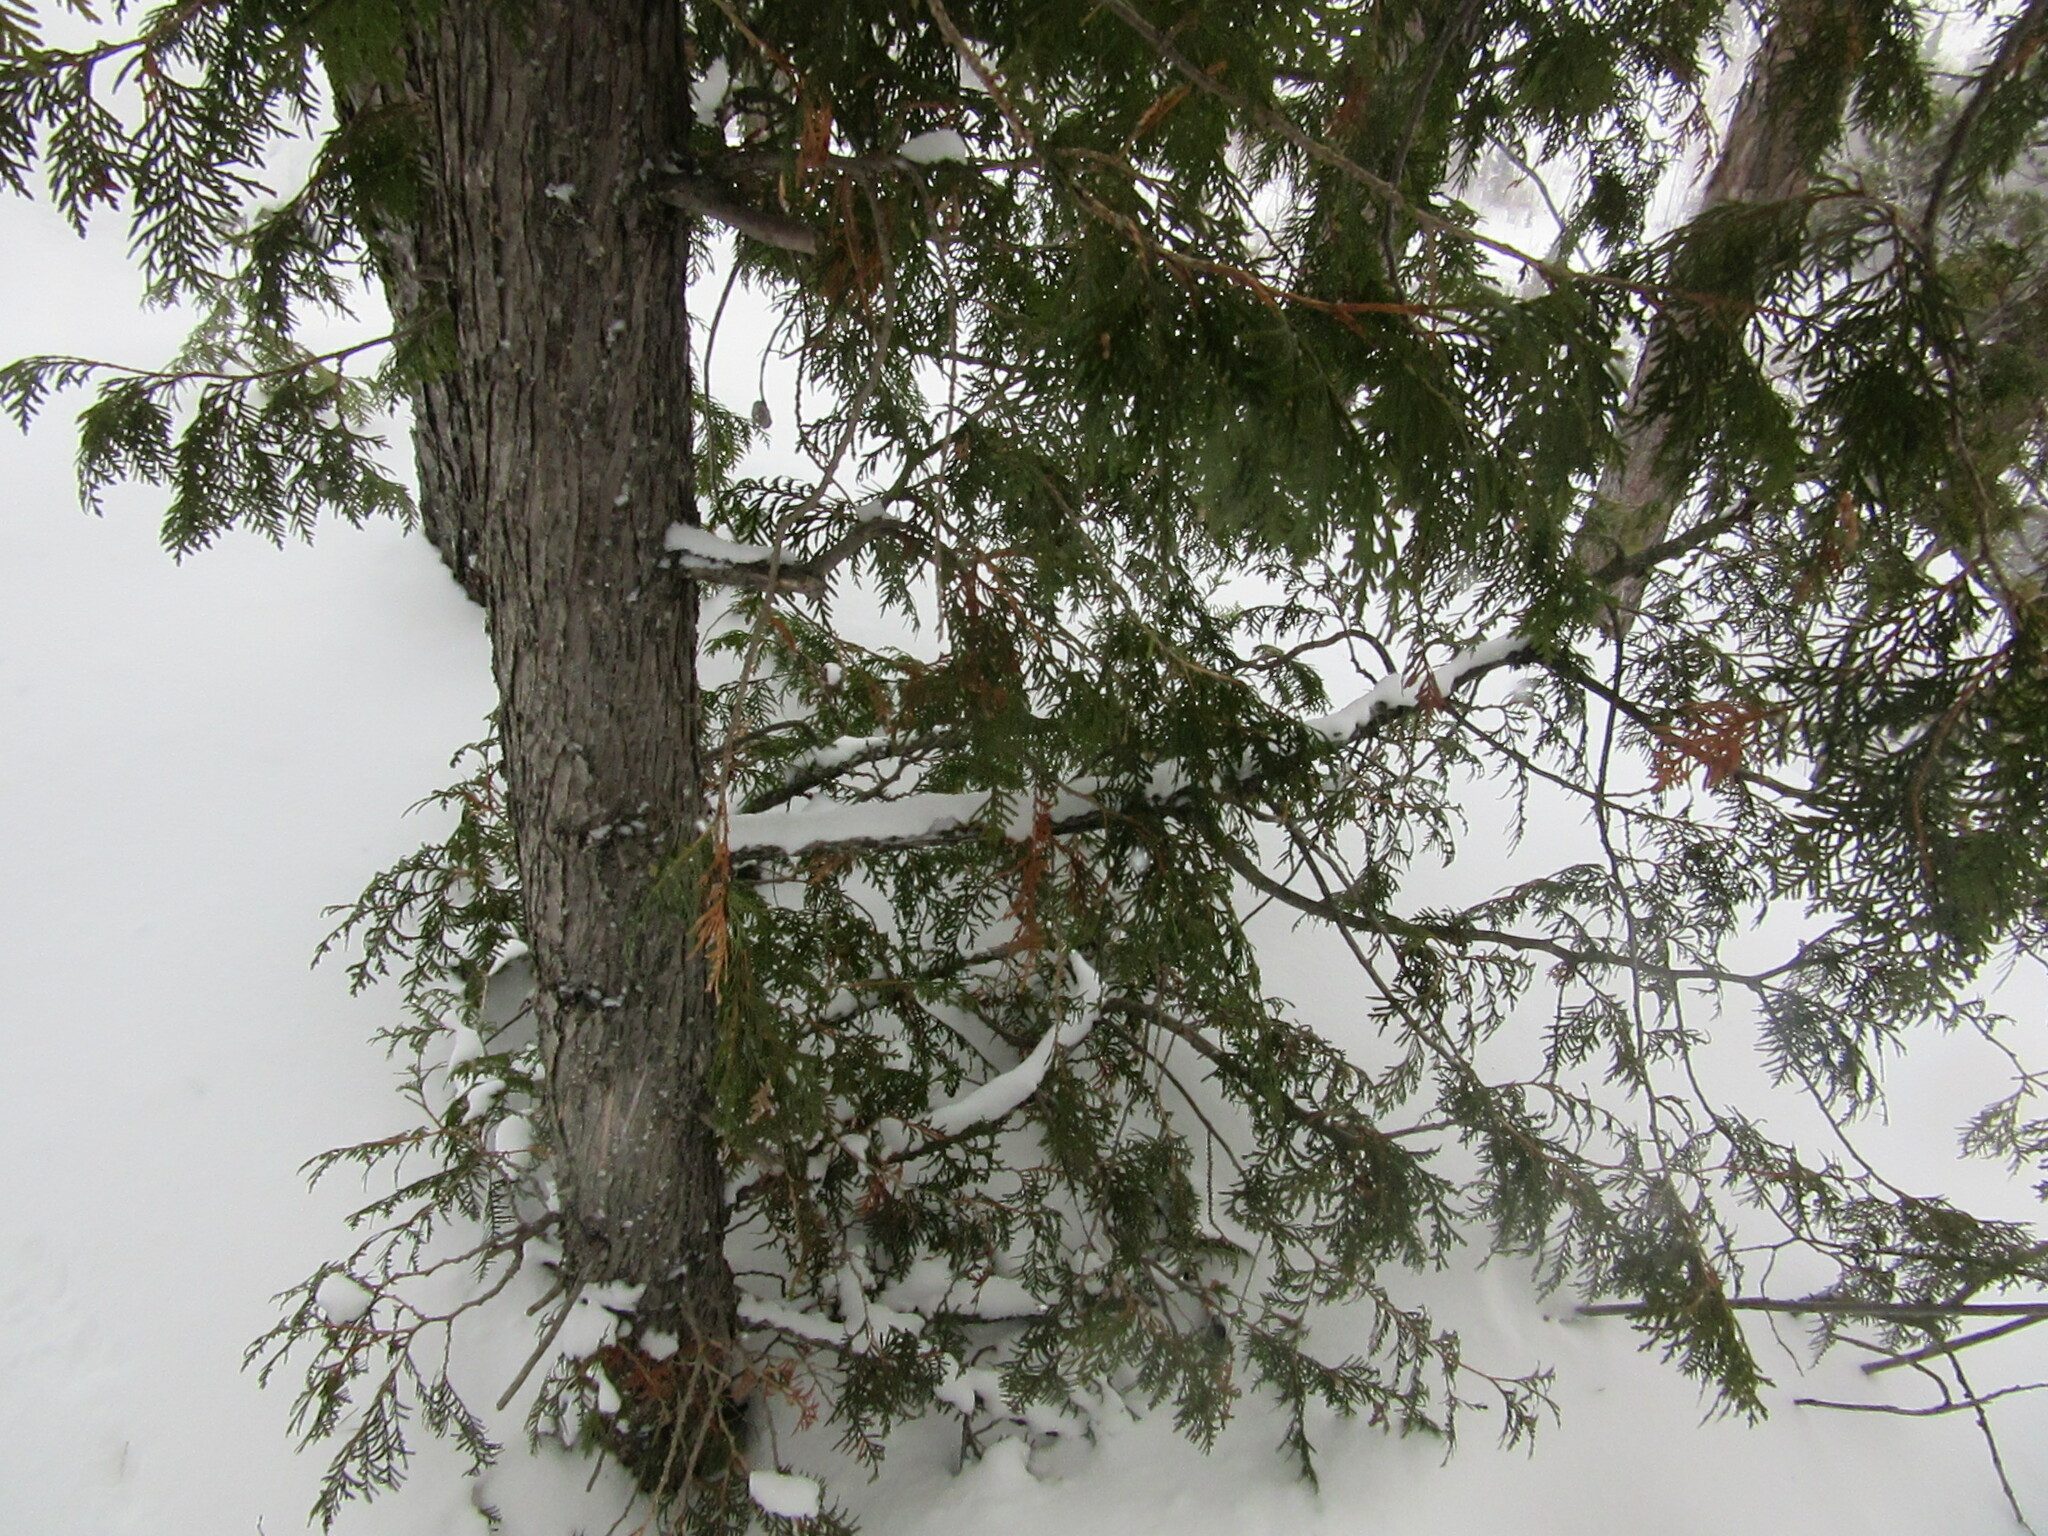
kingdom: Plantae
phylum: Tracheophyta
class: Pinopsida
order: Pinales
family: Cupressaceae
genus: Thuja
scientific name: Thuja occidentalis
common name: Northern white-cedar
